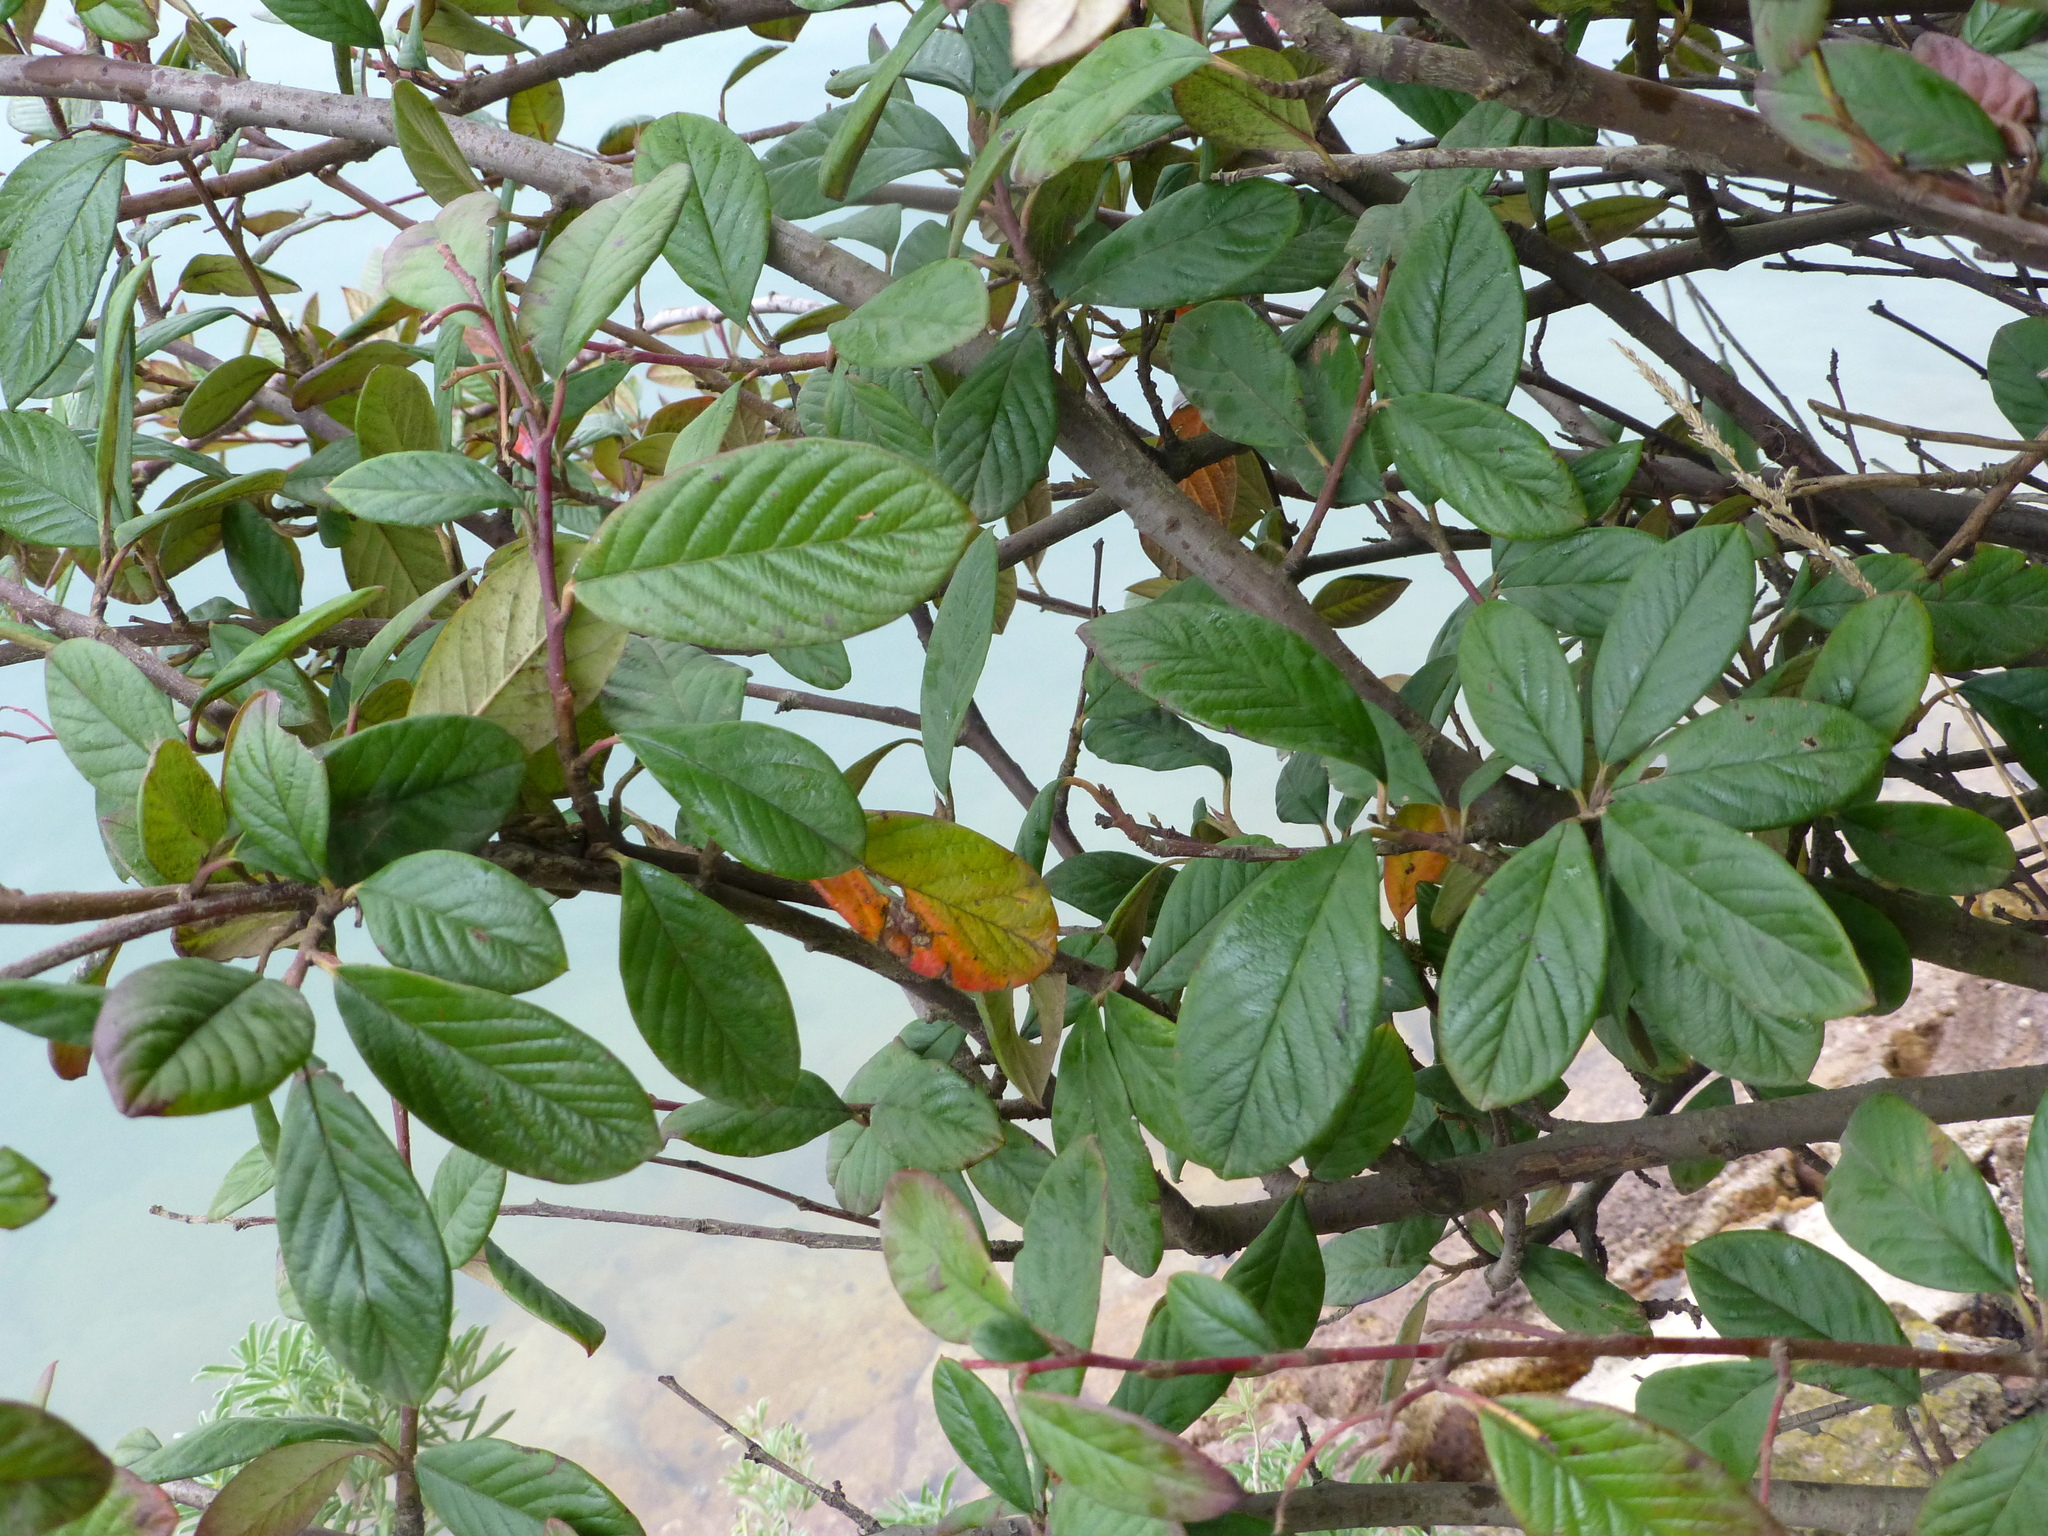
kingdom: Plantae
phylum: Tracheophyta
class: Magnoliopsida
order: Rosales
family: Rosaceae
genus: Cotoneaster
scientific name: Cotoneaster coriaceus
